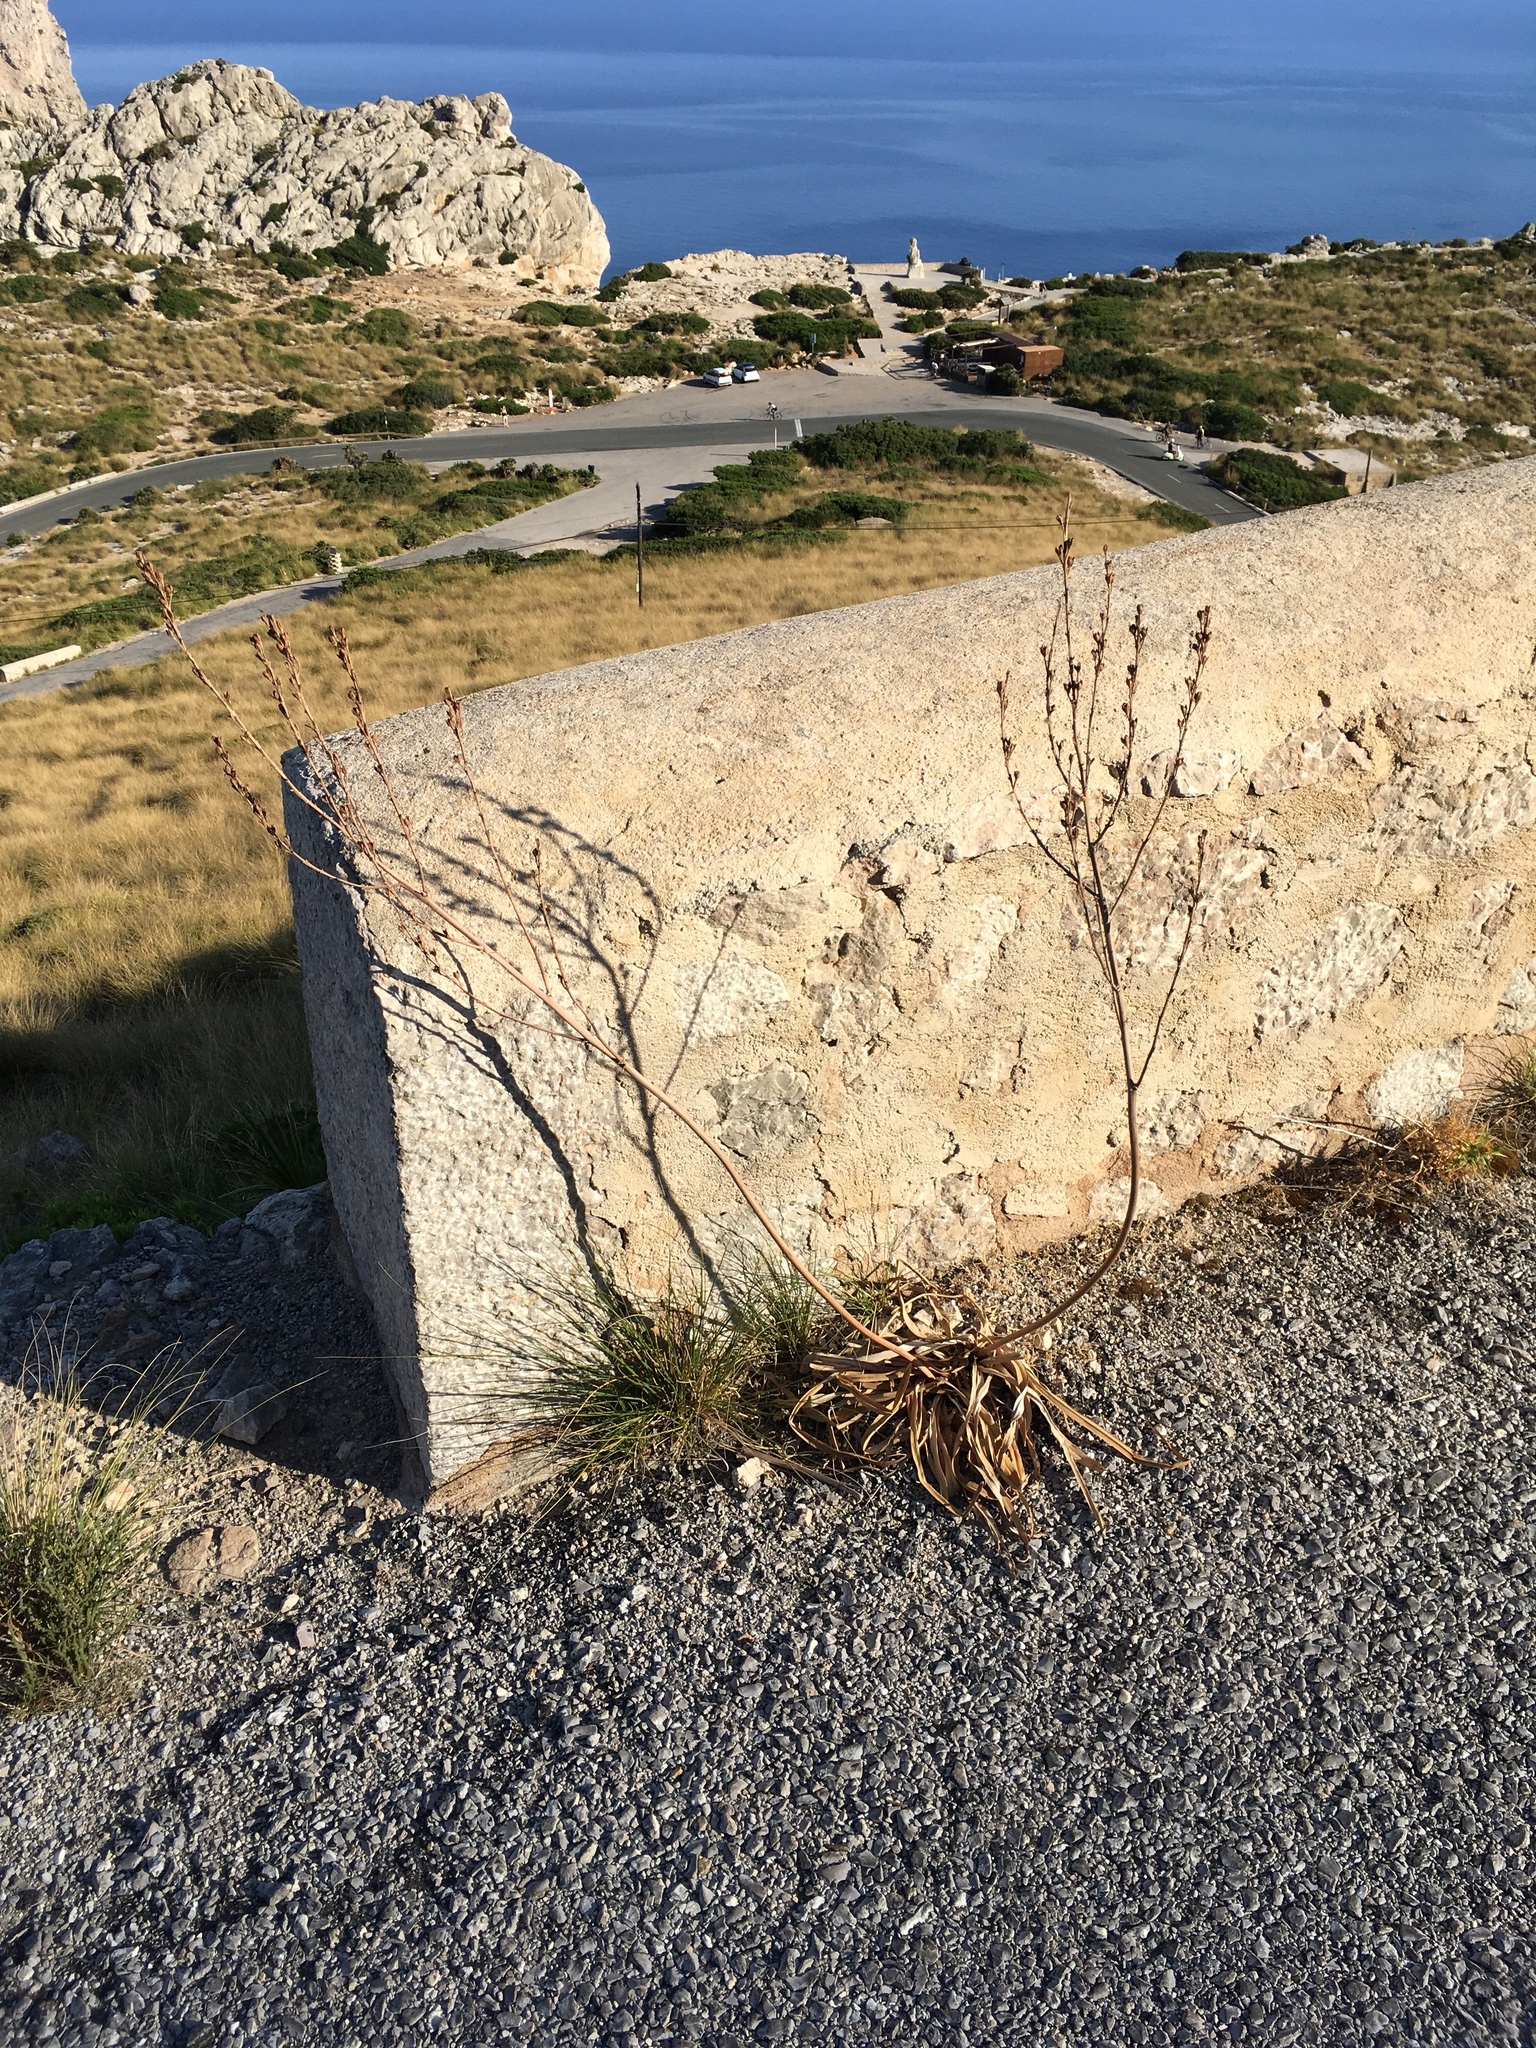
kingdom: Plantae
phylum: Tracheophyta
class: Liliopsida
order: Asparagales
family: Asphodelaceae
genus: Asphodelus
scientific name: Asphodelus aestivus
